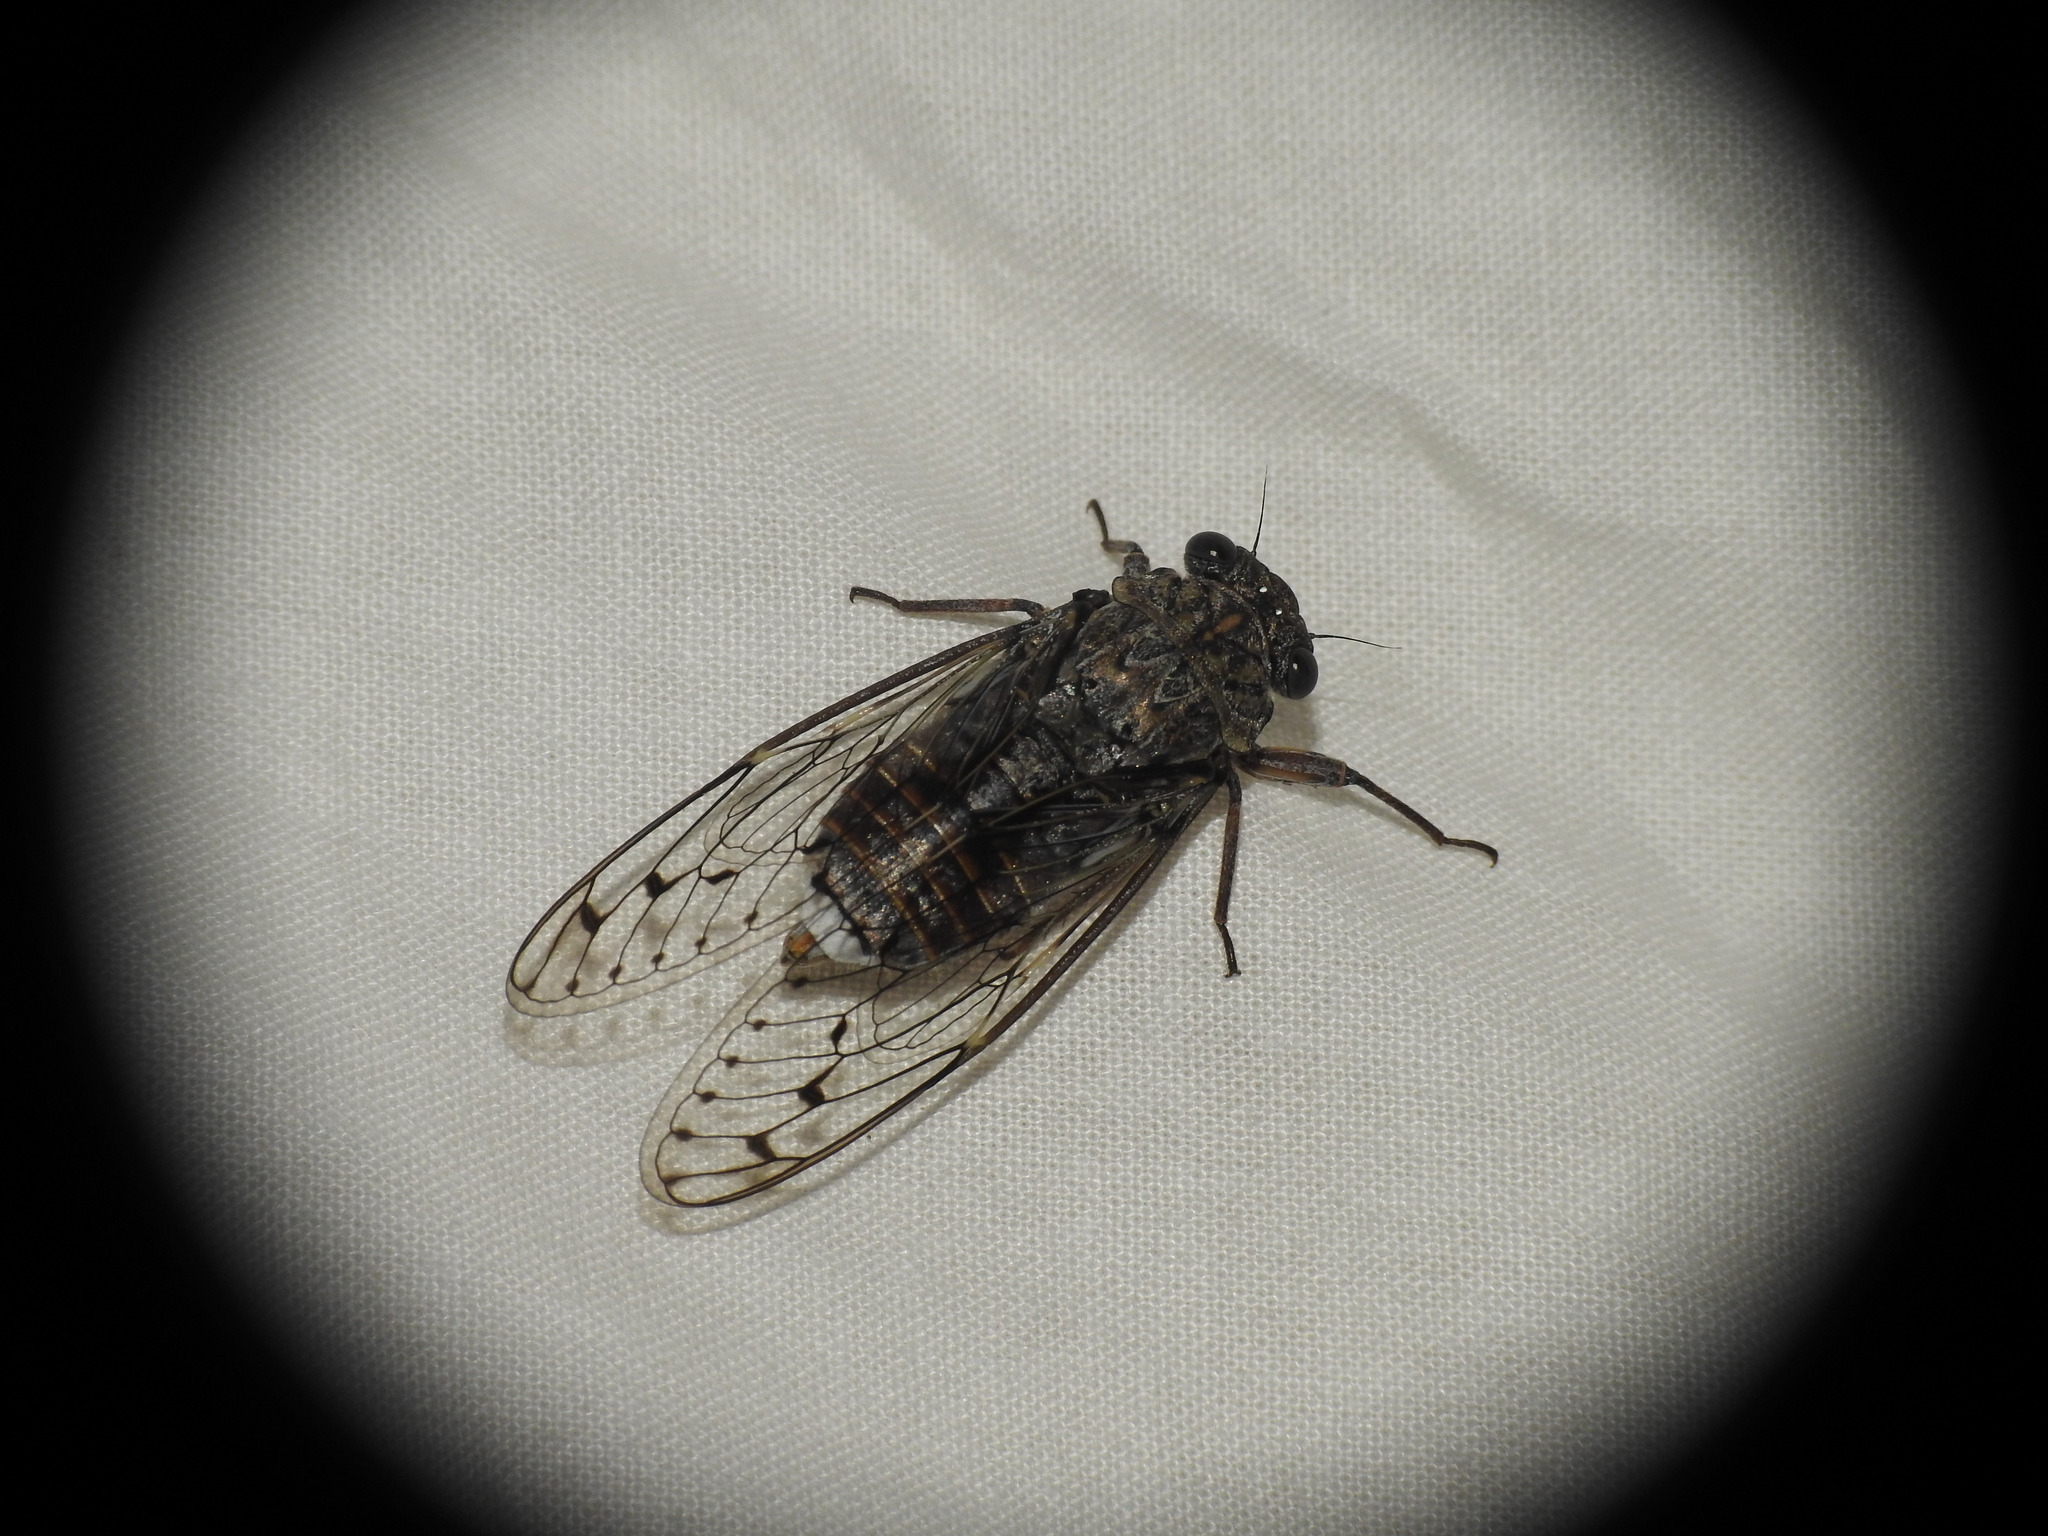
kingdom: Animalia
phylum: Arthropoda
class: Insecta
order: Hemiptera
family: Cicadidae
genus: Cicada
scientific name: Cicada orni
